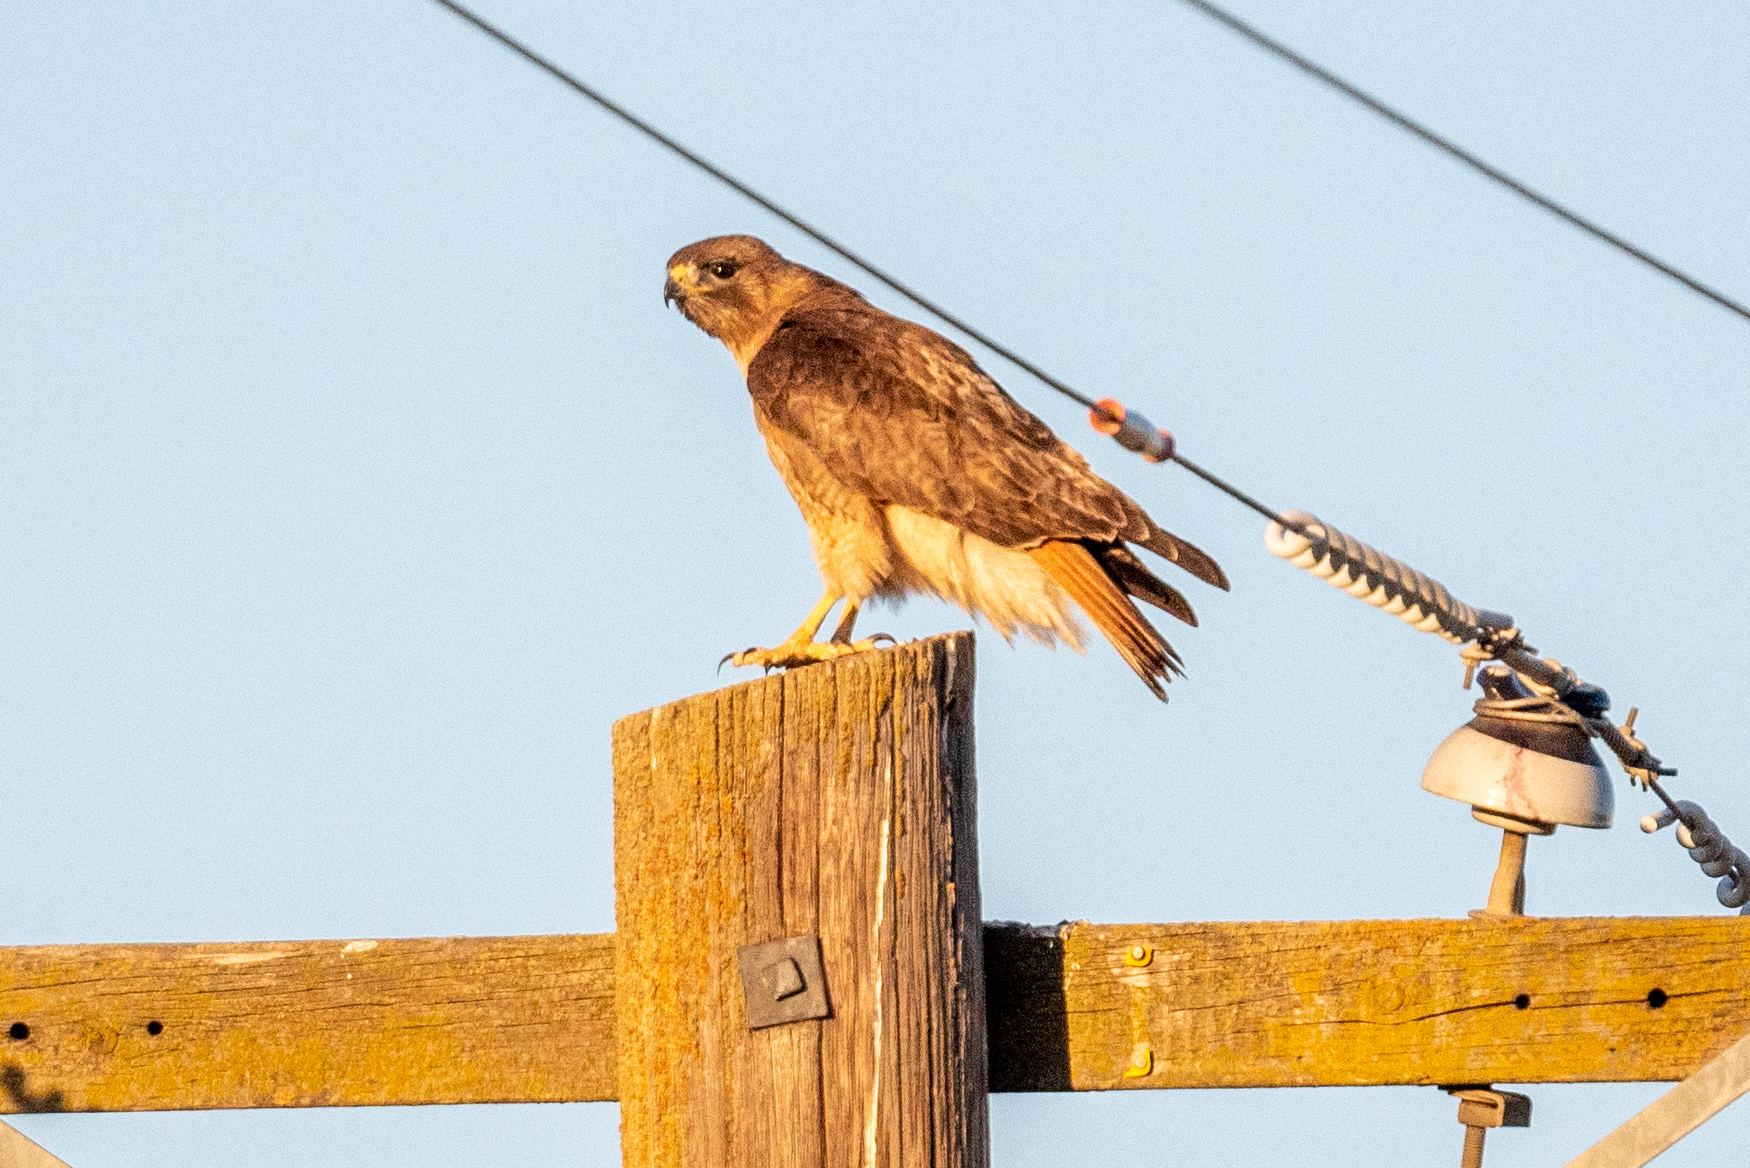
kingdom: Animalia
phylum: Chordata
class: Aves
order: Accipitriformes
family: Accipitridae
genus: Buteo
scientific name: Buteo jamaicensis
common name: Red-tailed hawk
